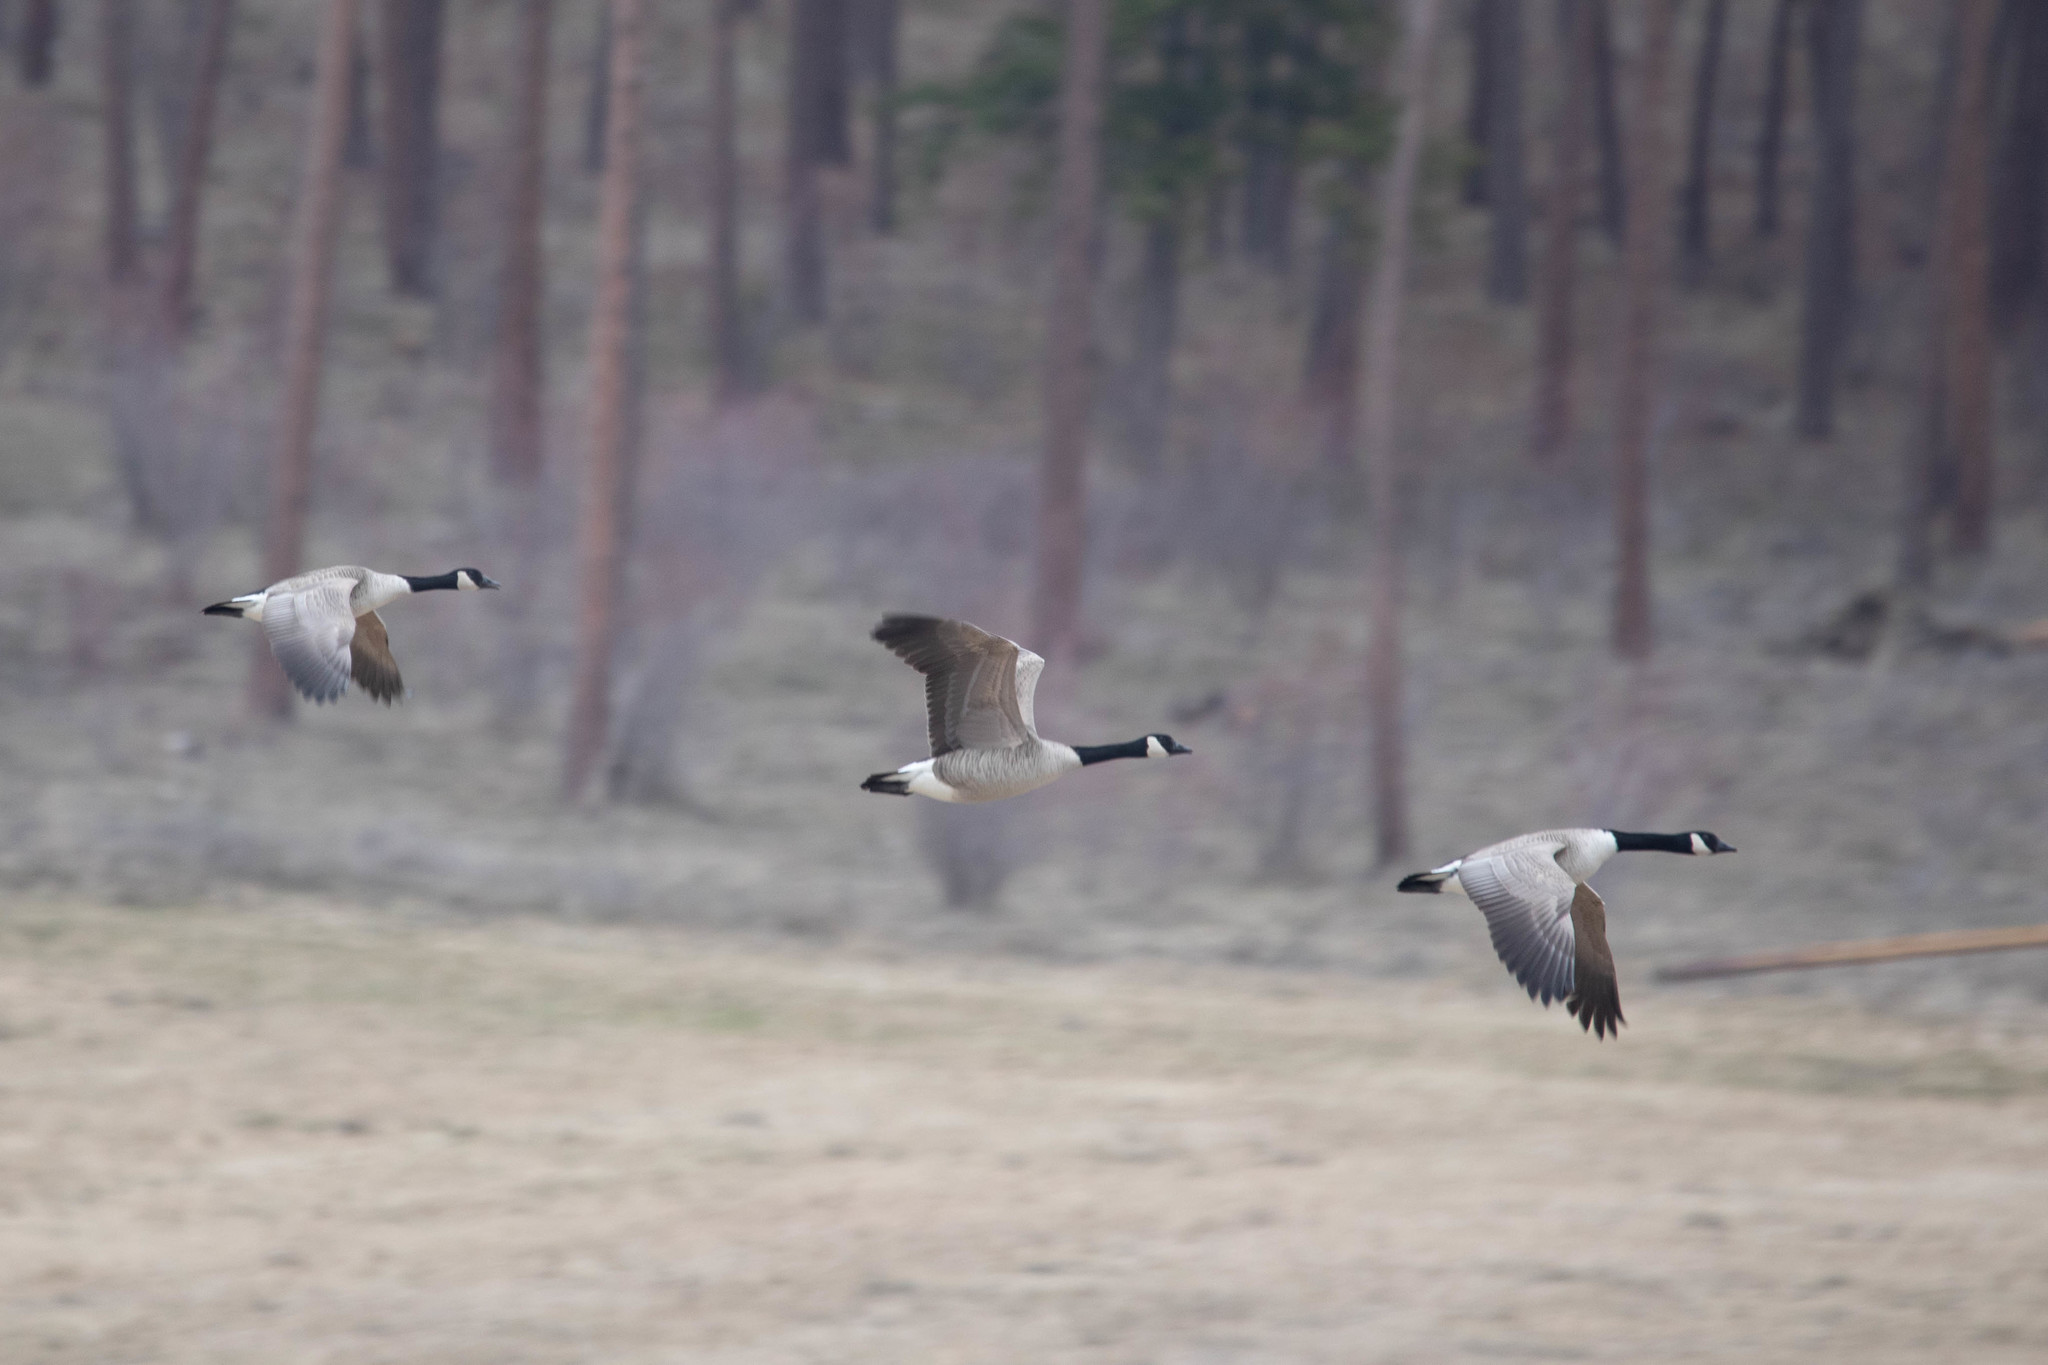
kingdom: Animalia
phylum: Chordata
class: Aves
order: Anseriformes
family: Anatidae
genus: Branta
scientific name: Branta canadensis
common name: Canada goose
